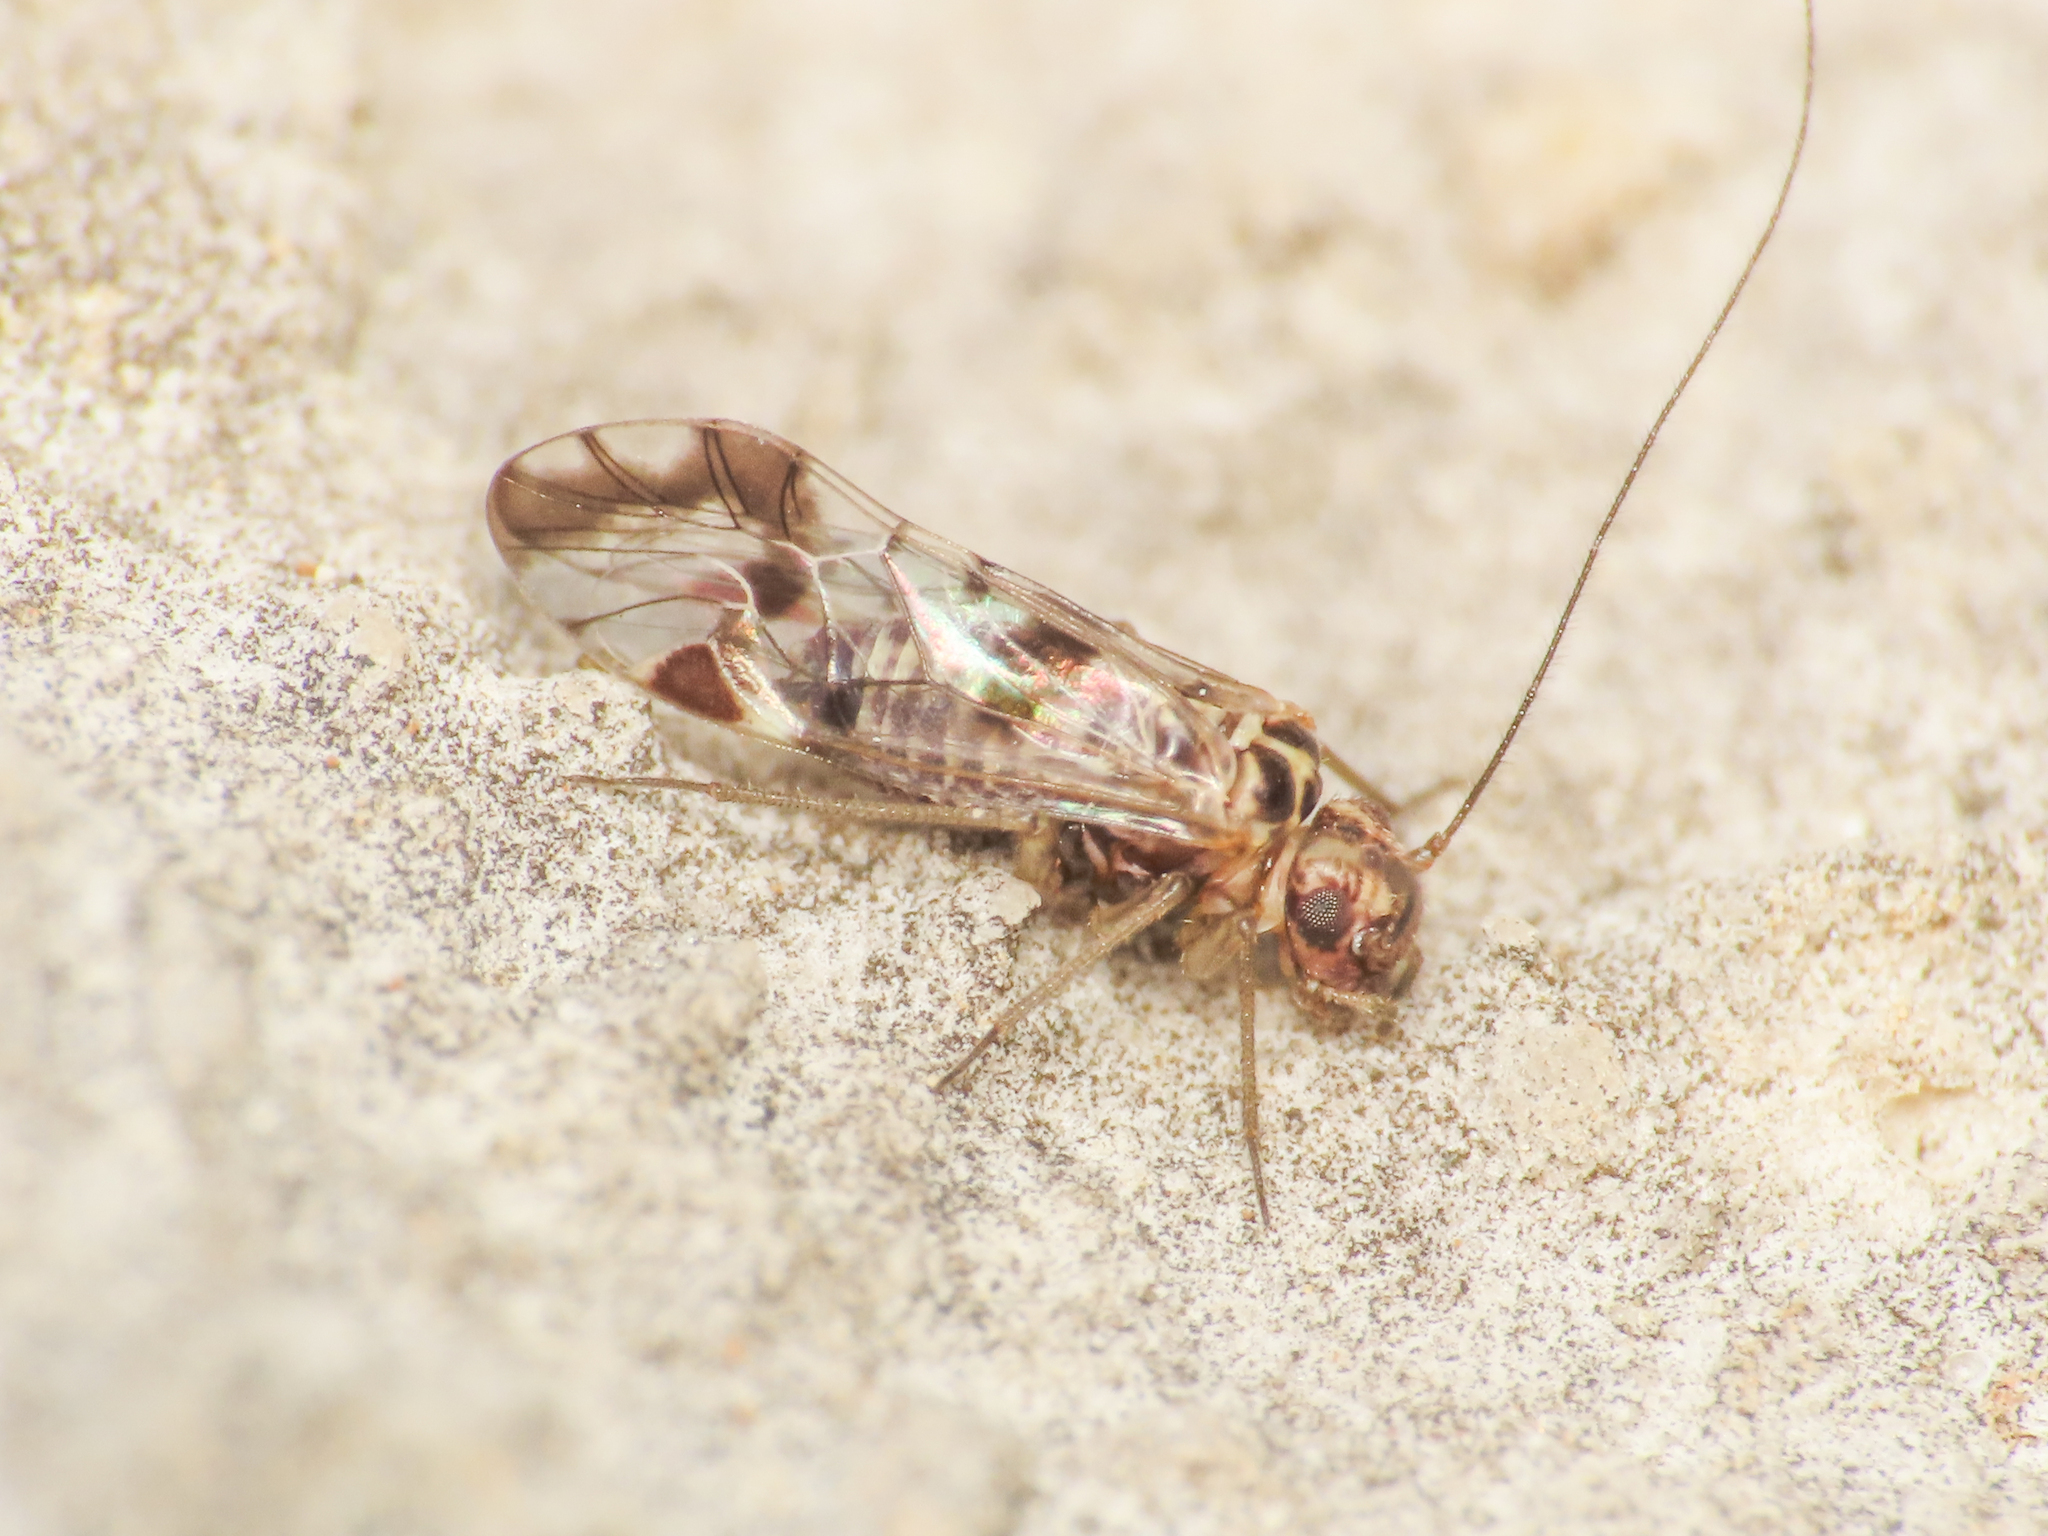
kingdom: Animalia
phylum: Arthropoda
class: Insecta
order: Psocodea
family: Psocidae
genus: Neopsocus
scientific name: Neopsocus rhenanus
